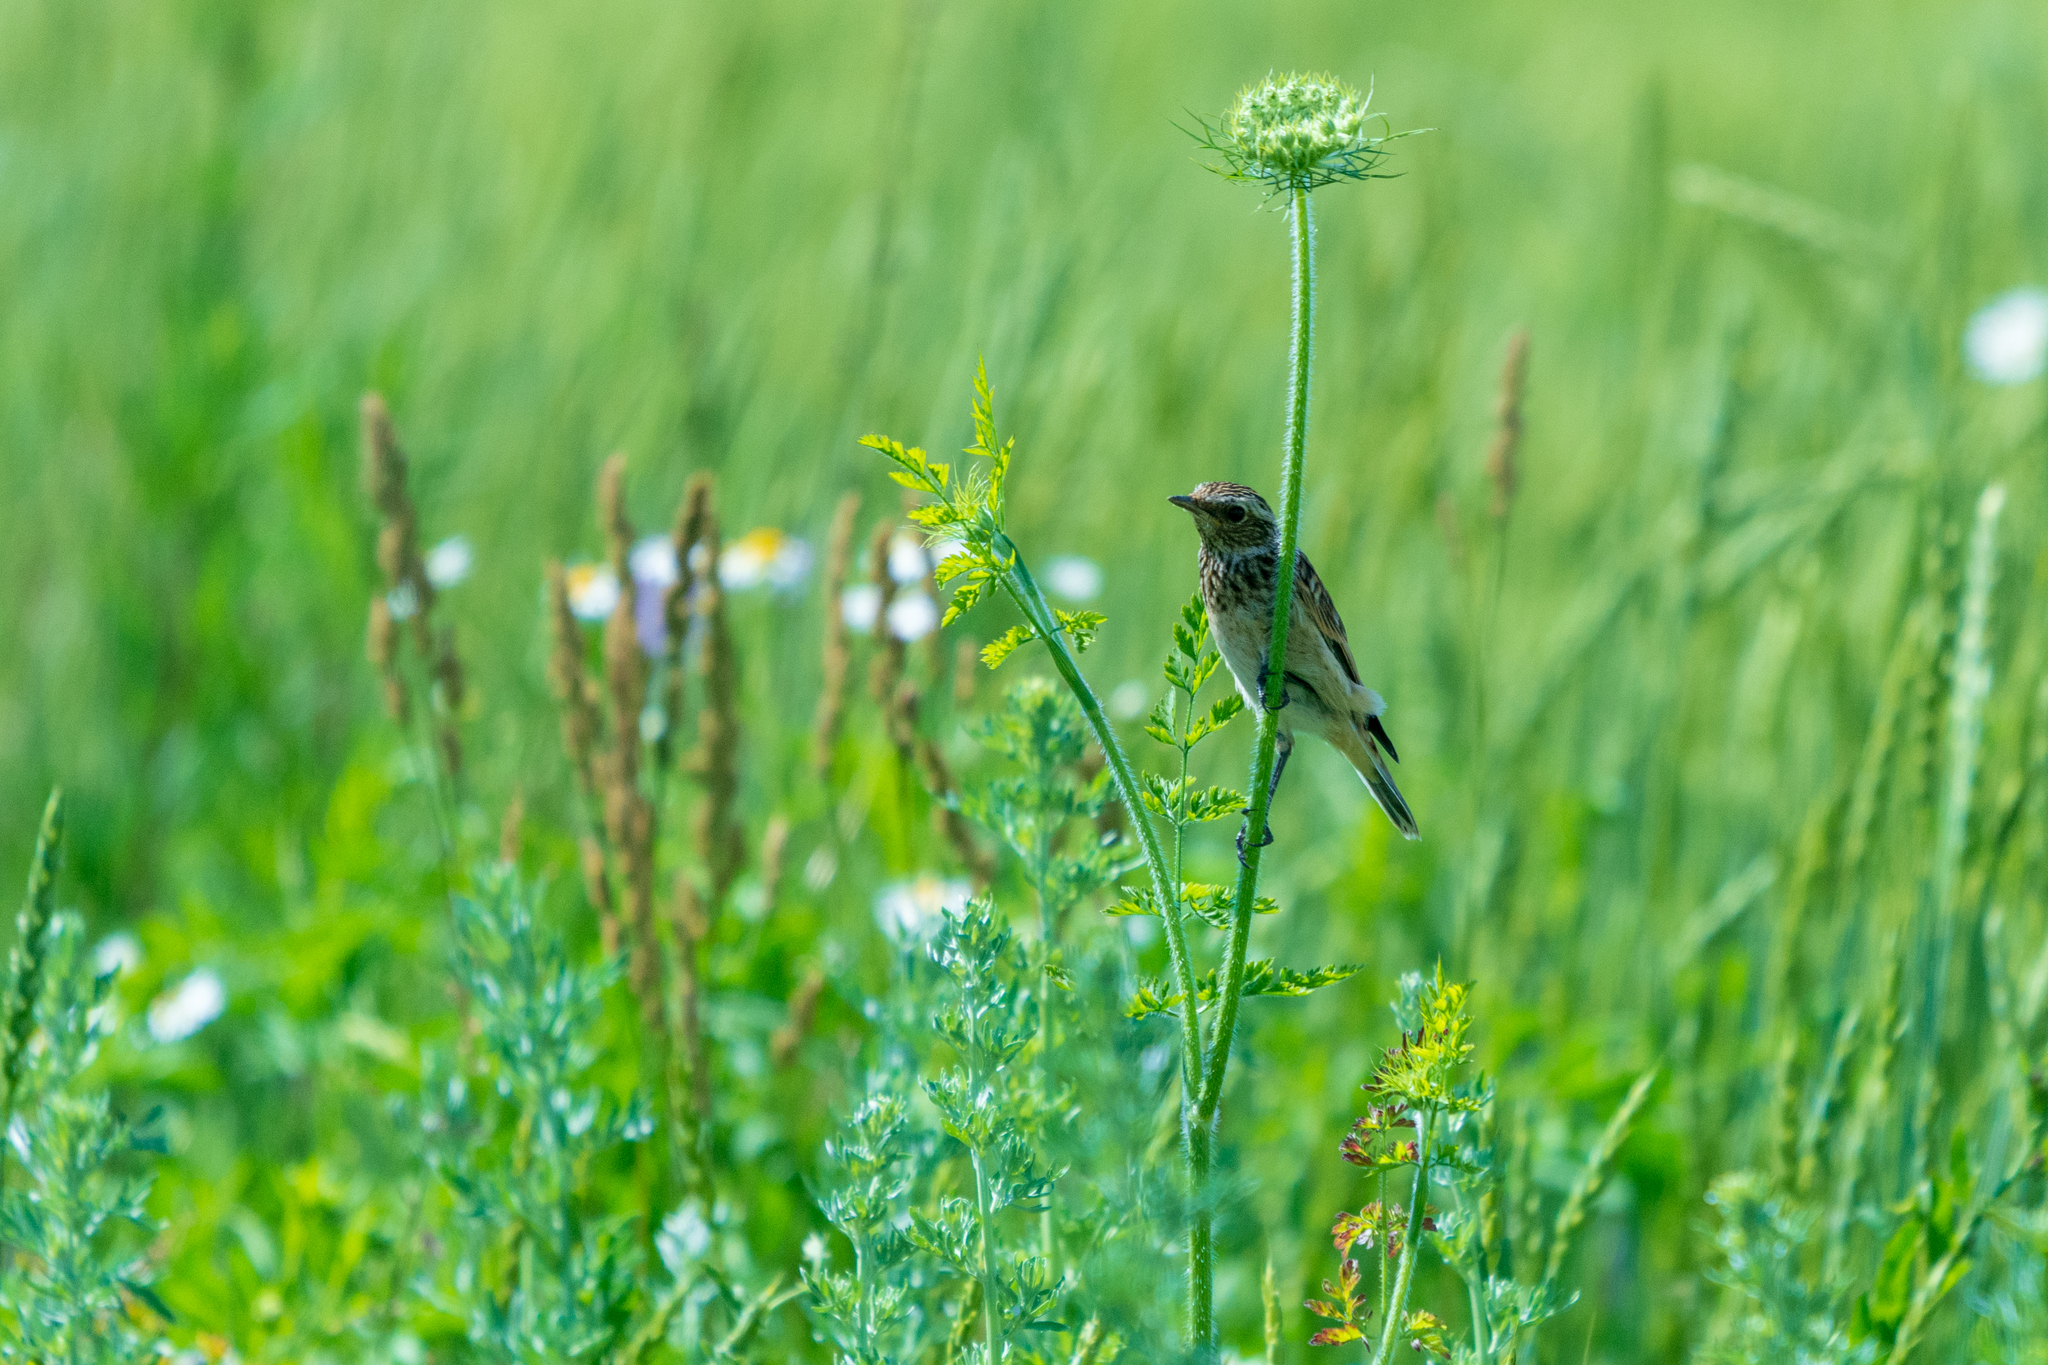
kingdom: Animalia
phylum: Chordata
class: Aves
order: Passeriformes
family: Muscicapidae
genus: Saxicola
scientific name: Saxicola rubetra
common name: Whinchat
